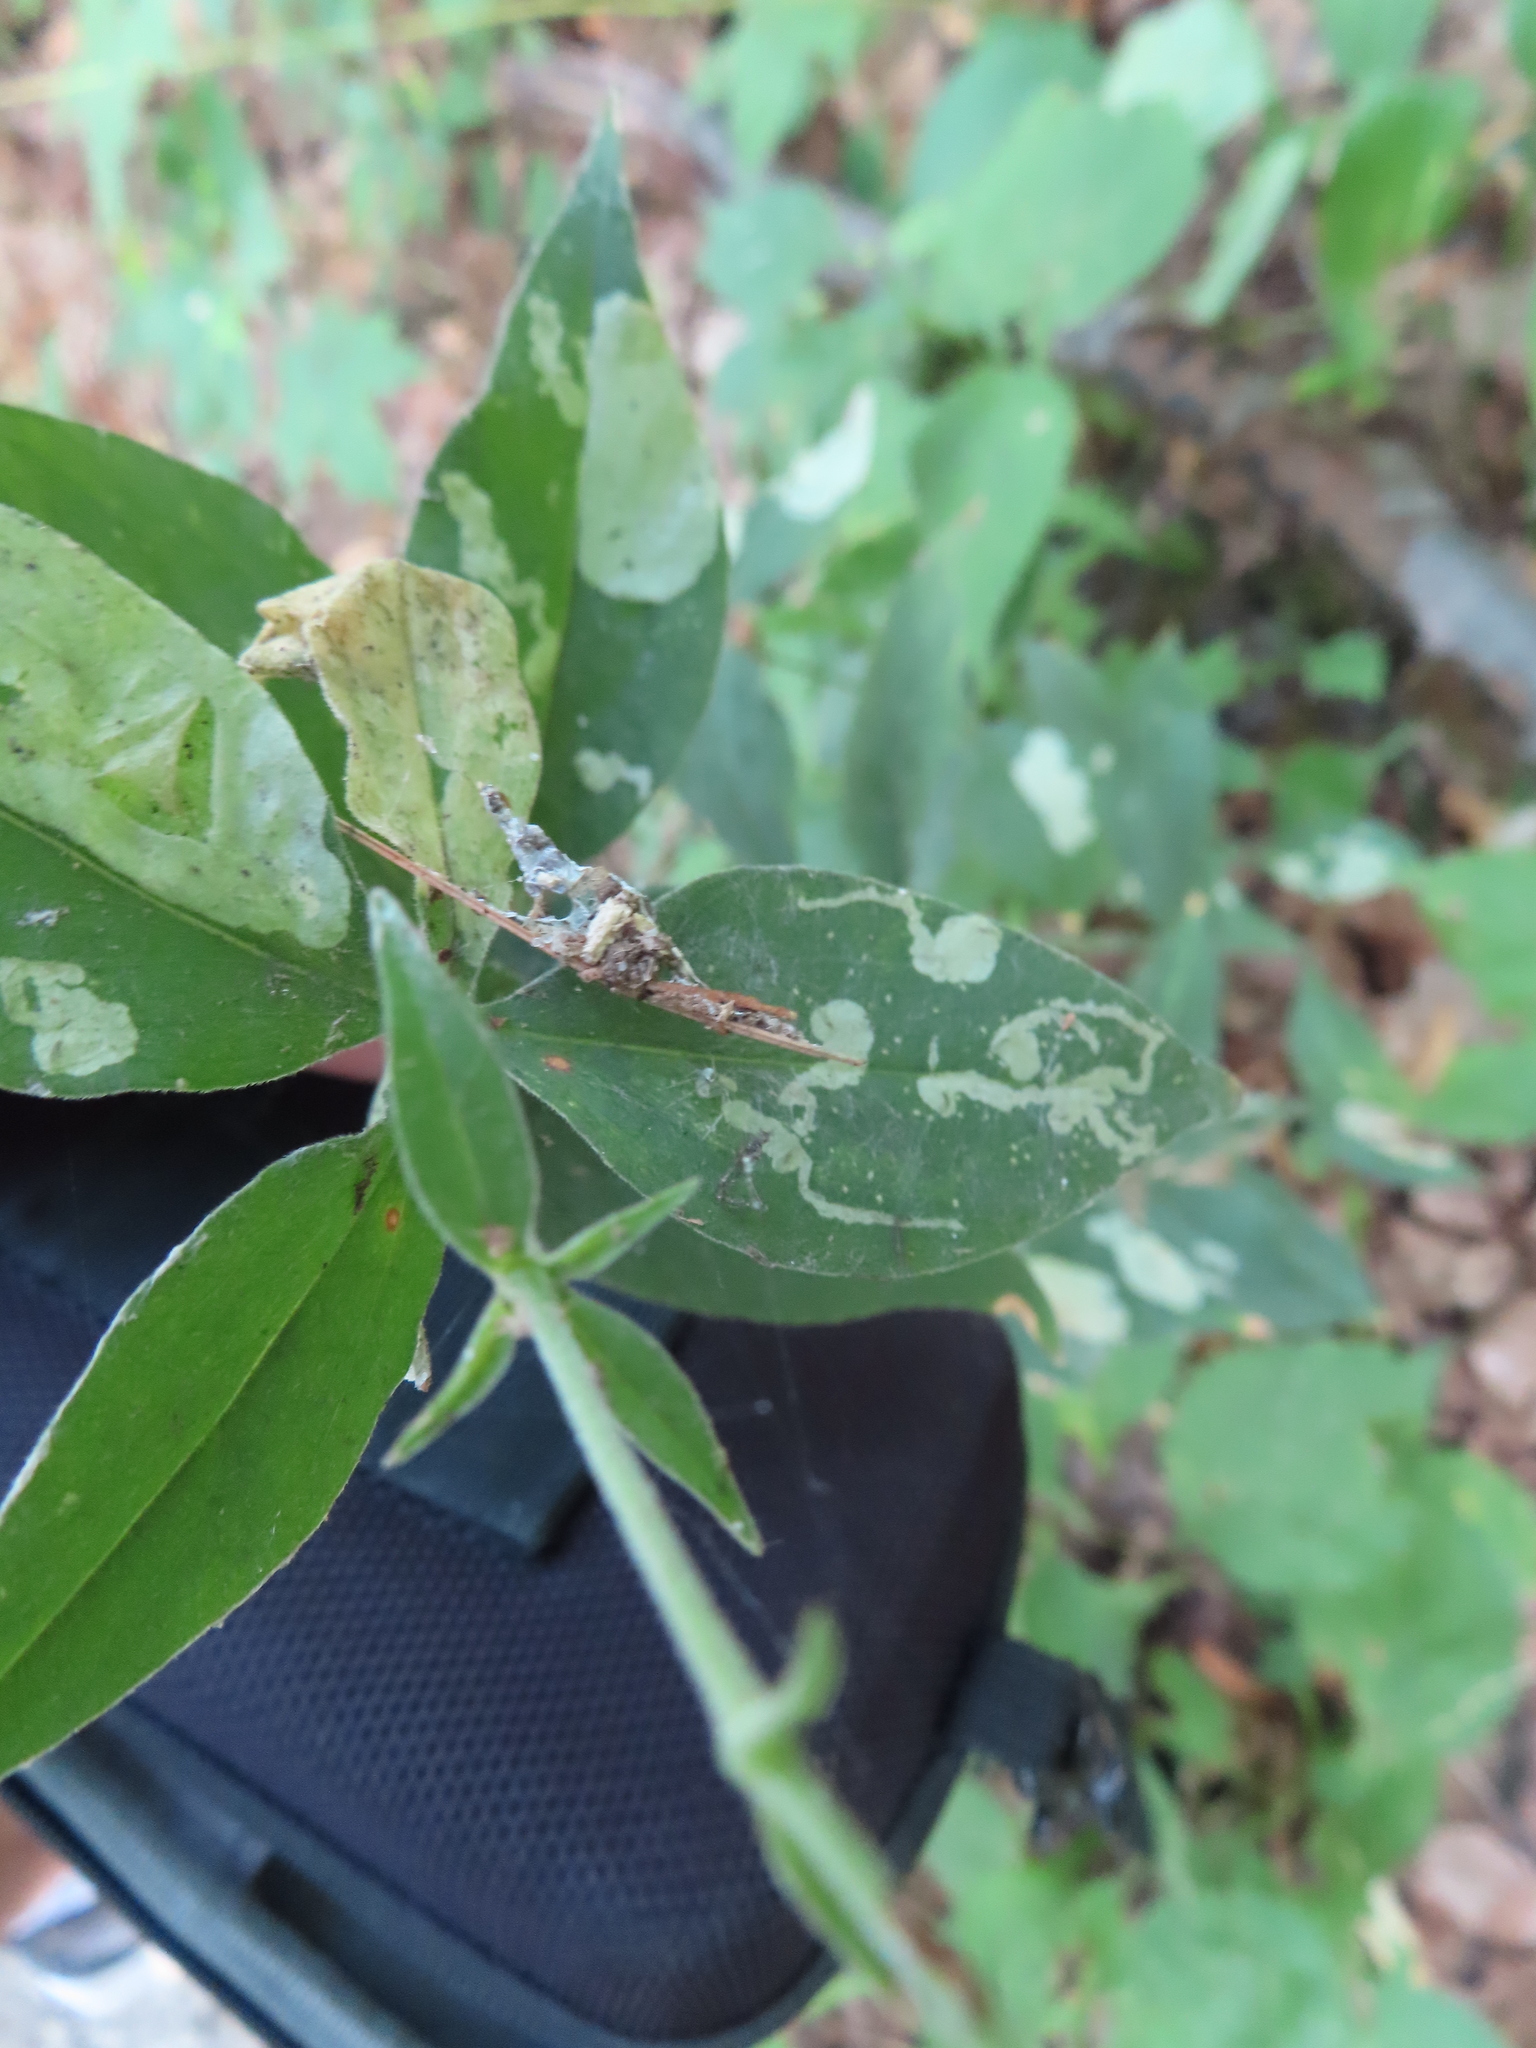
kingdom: Animalia
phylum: Arthropoda
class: Insecta
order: Diptera
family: Agromyzidae
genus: Amauromyza
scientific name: Amauromyza flavifrons
